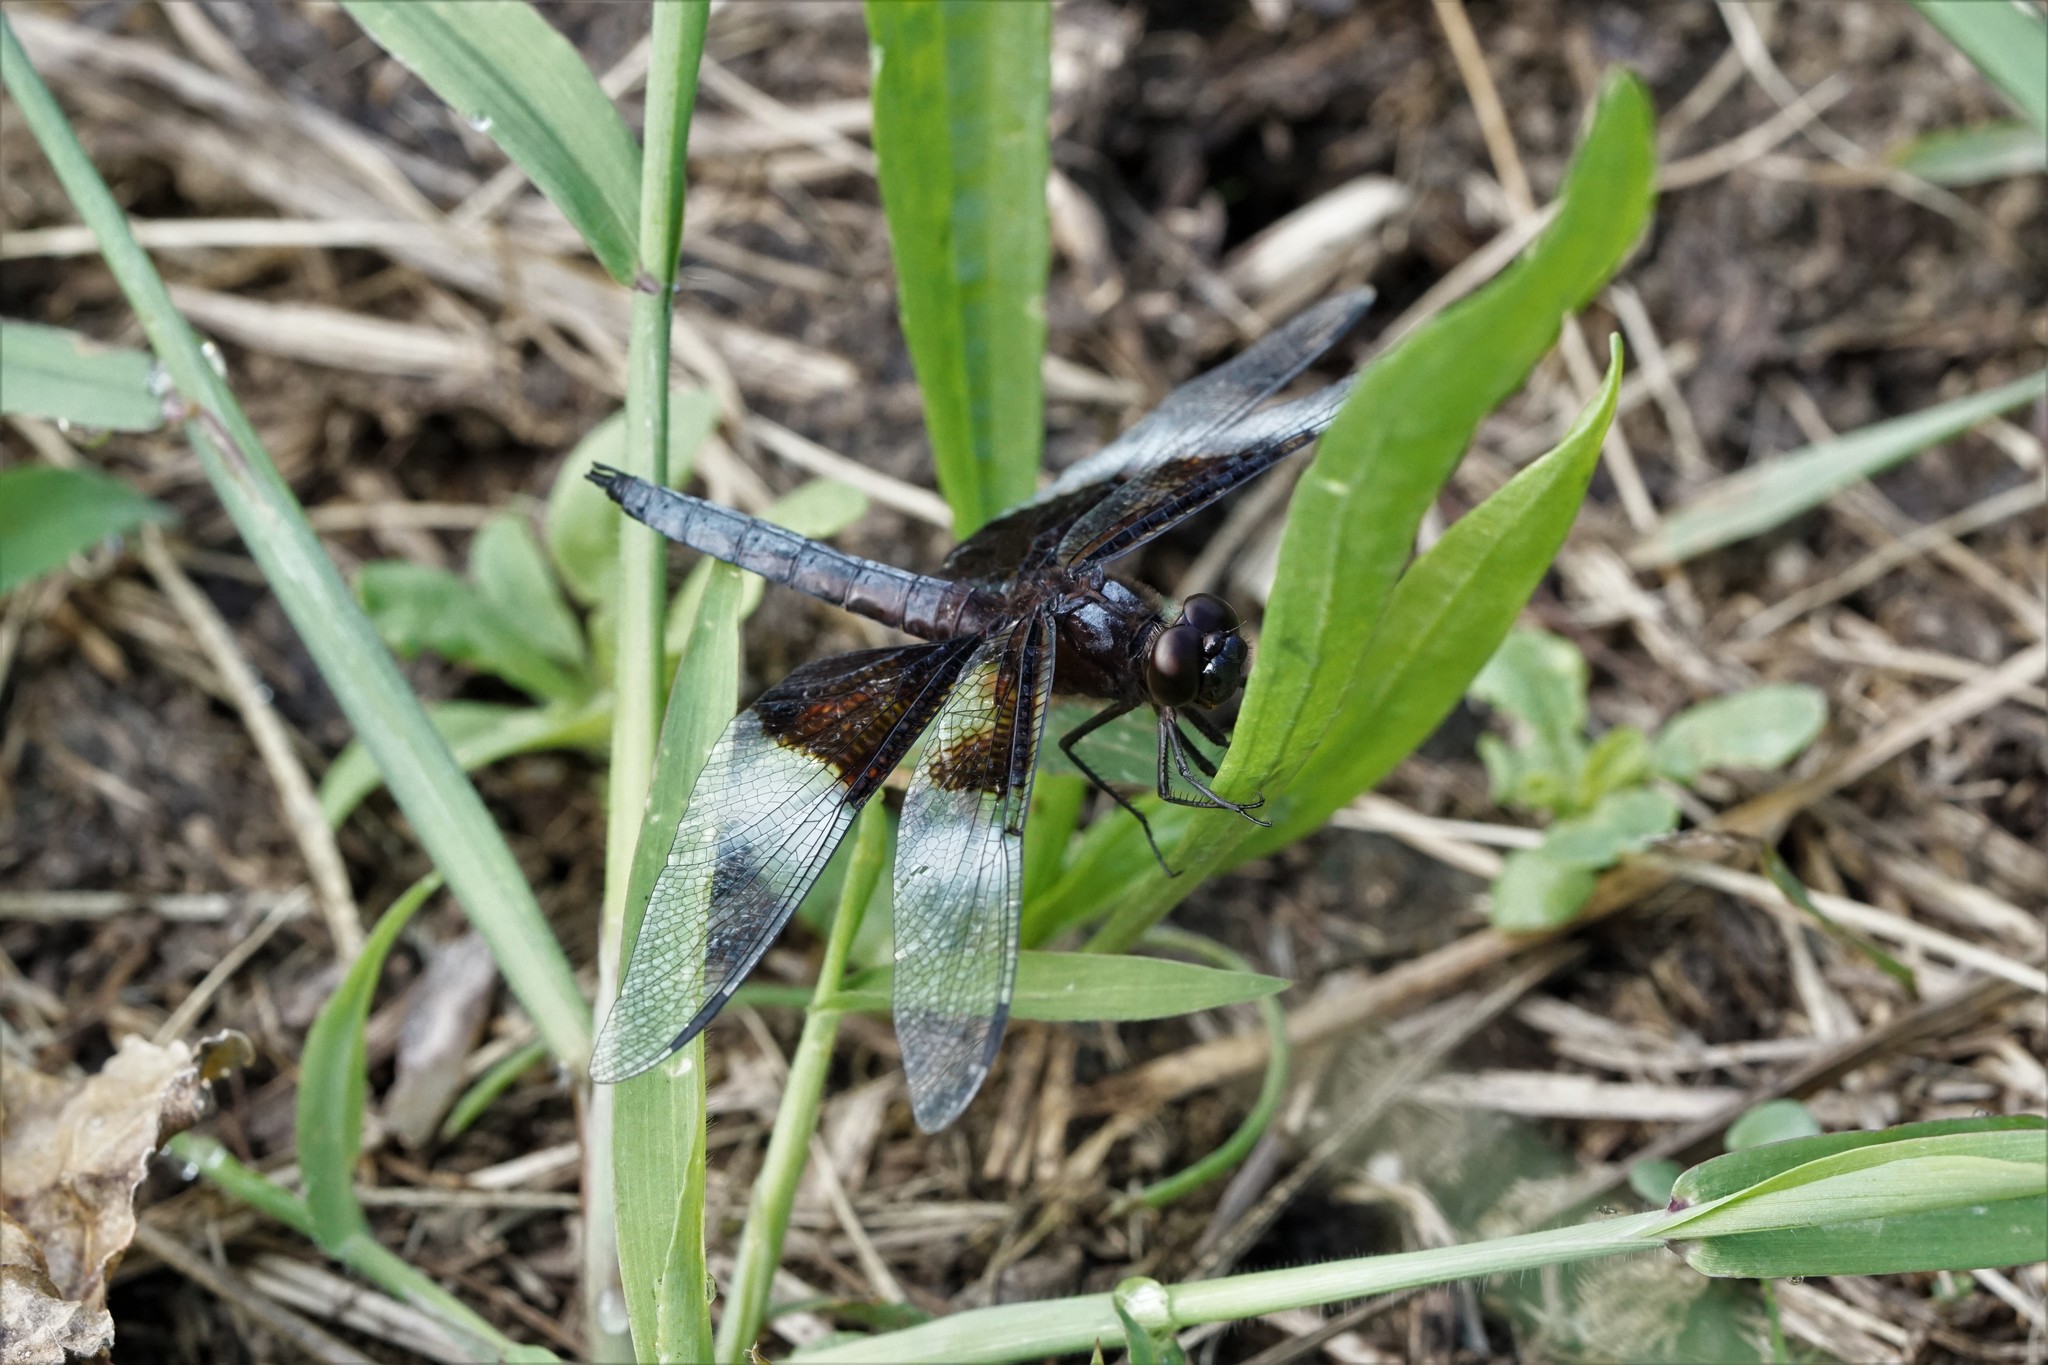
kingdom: Animalia
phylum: Arthropoda
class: Insecta
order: Odonata
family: Libellulidae
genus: Libellula
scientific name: Libellula luctuosa
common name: Widow skimmer
